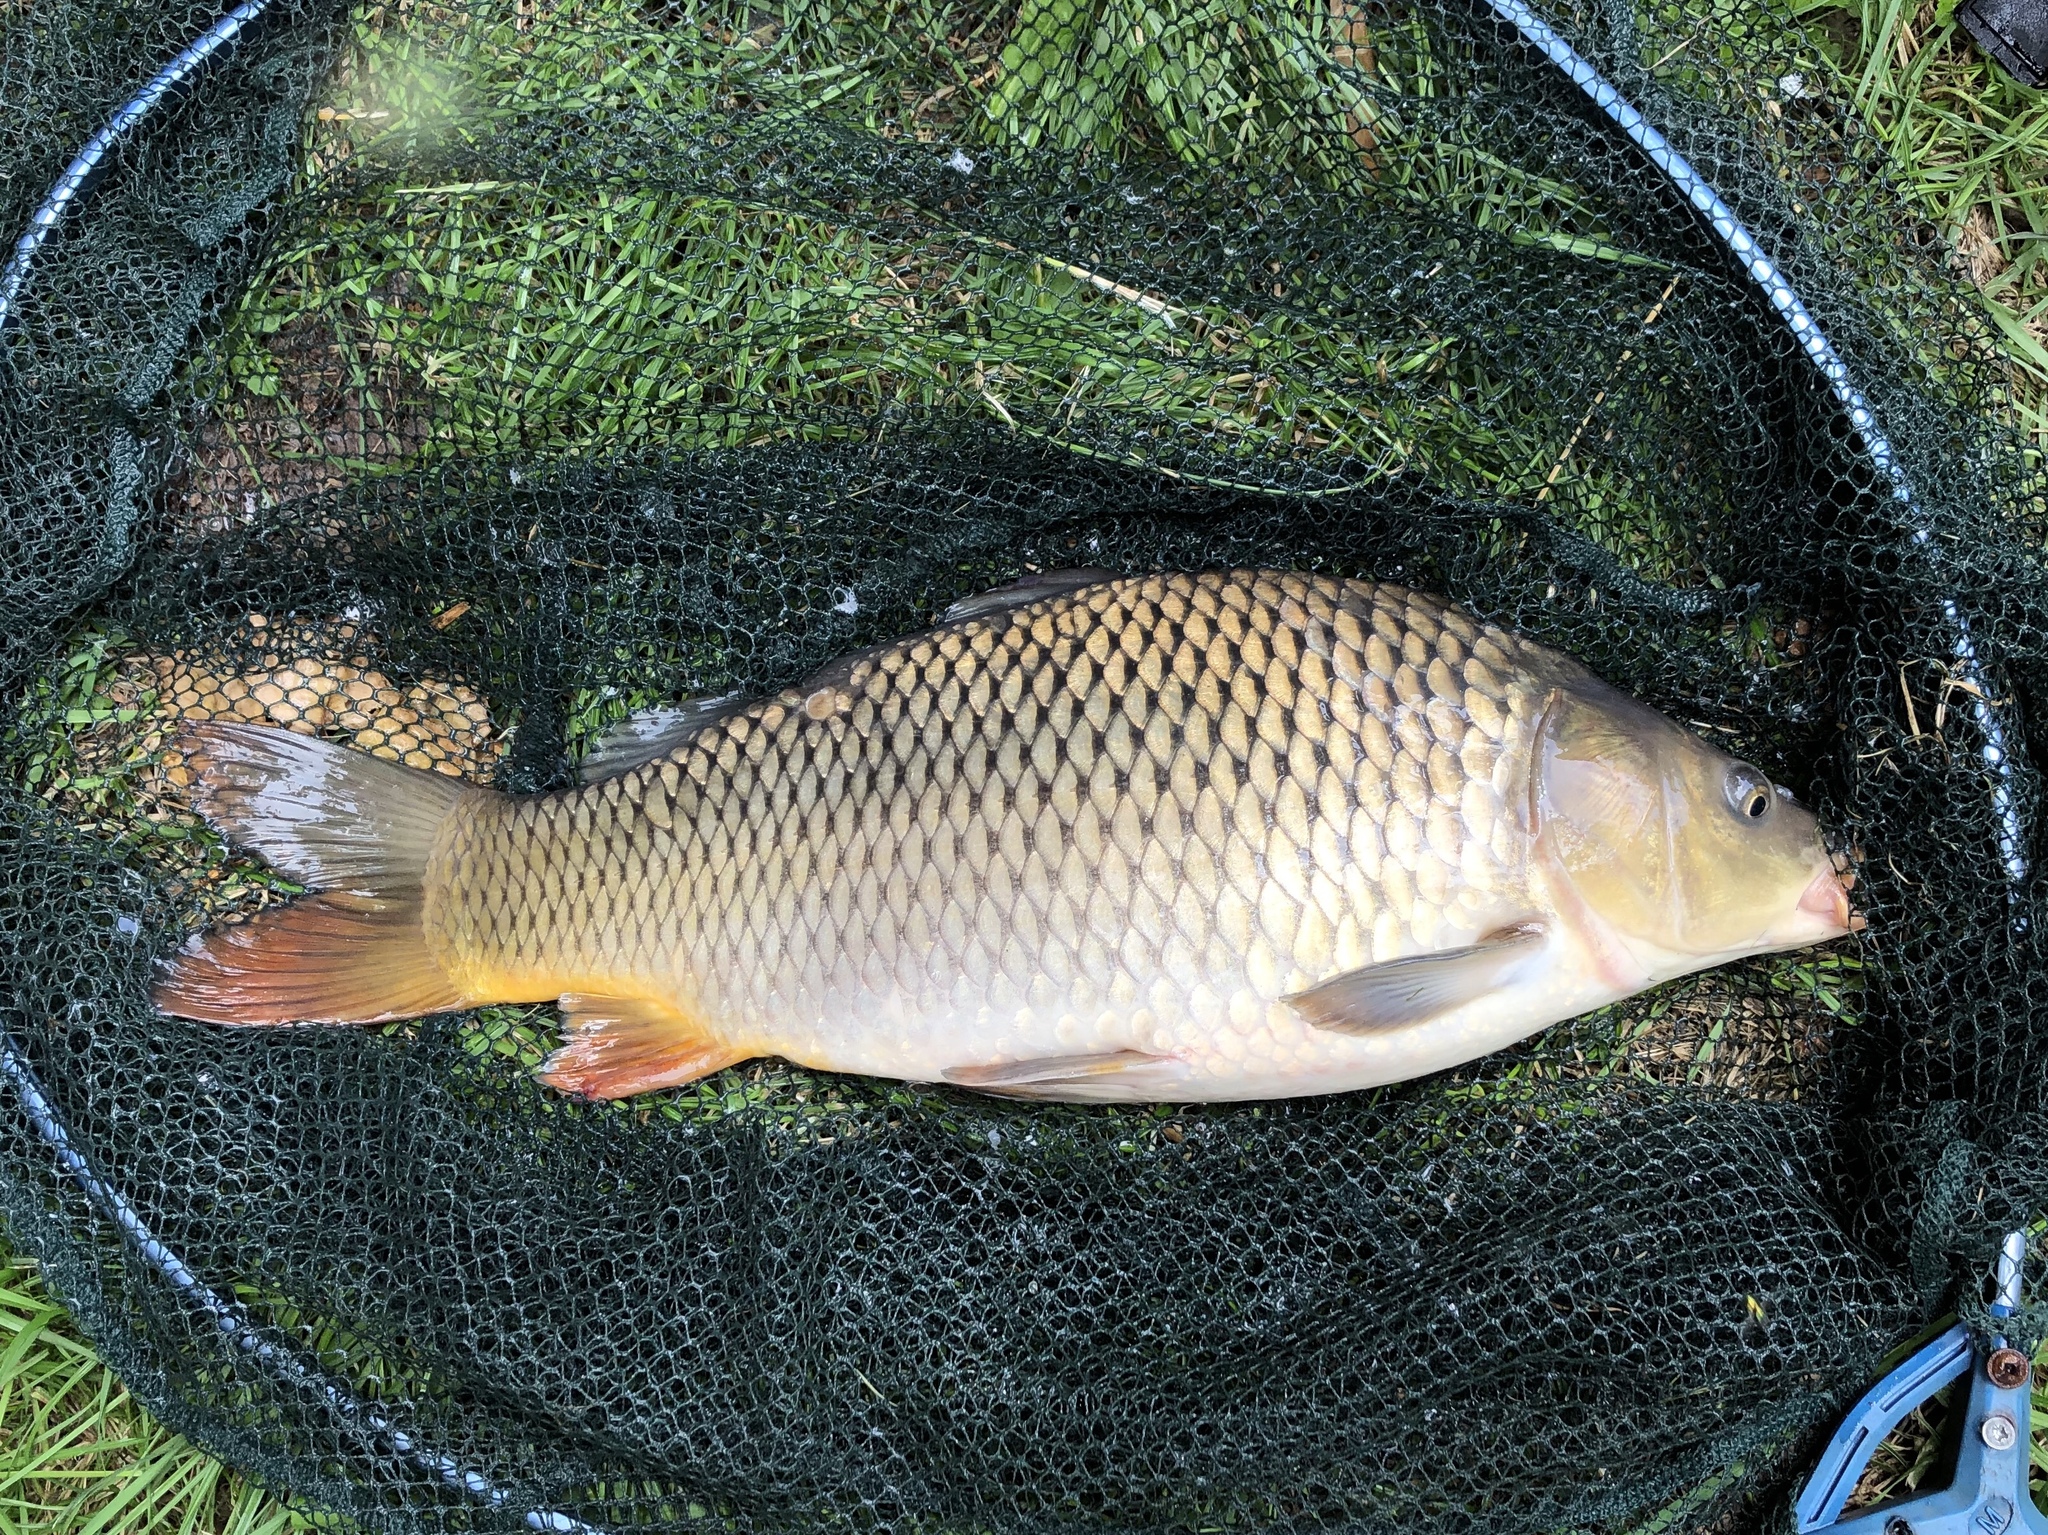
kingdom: Animalia
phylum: Chordata
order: Cypriniformes
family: Cyprinidae
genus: Cyprinus
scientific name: Cyprinus carpio
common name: Common carp
